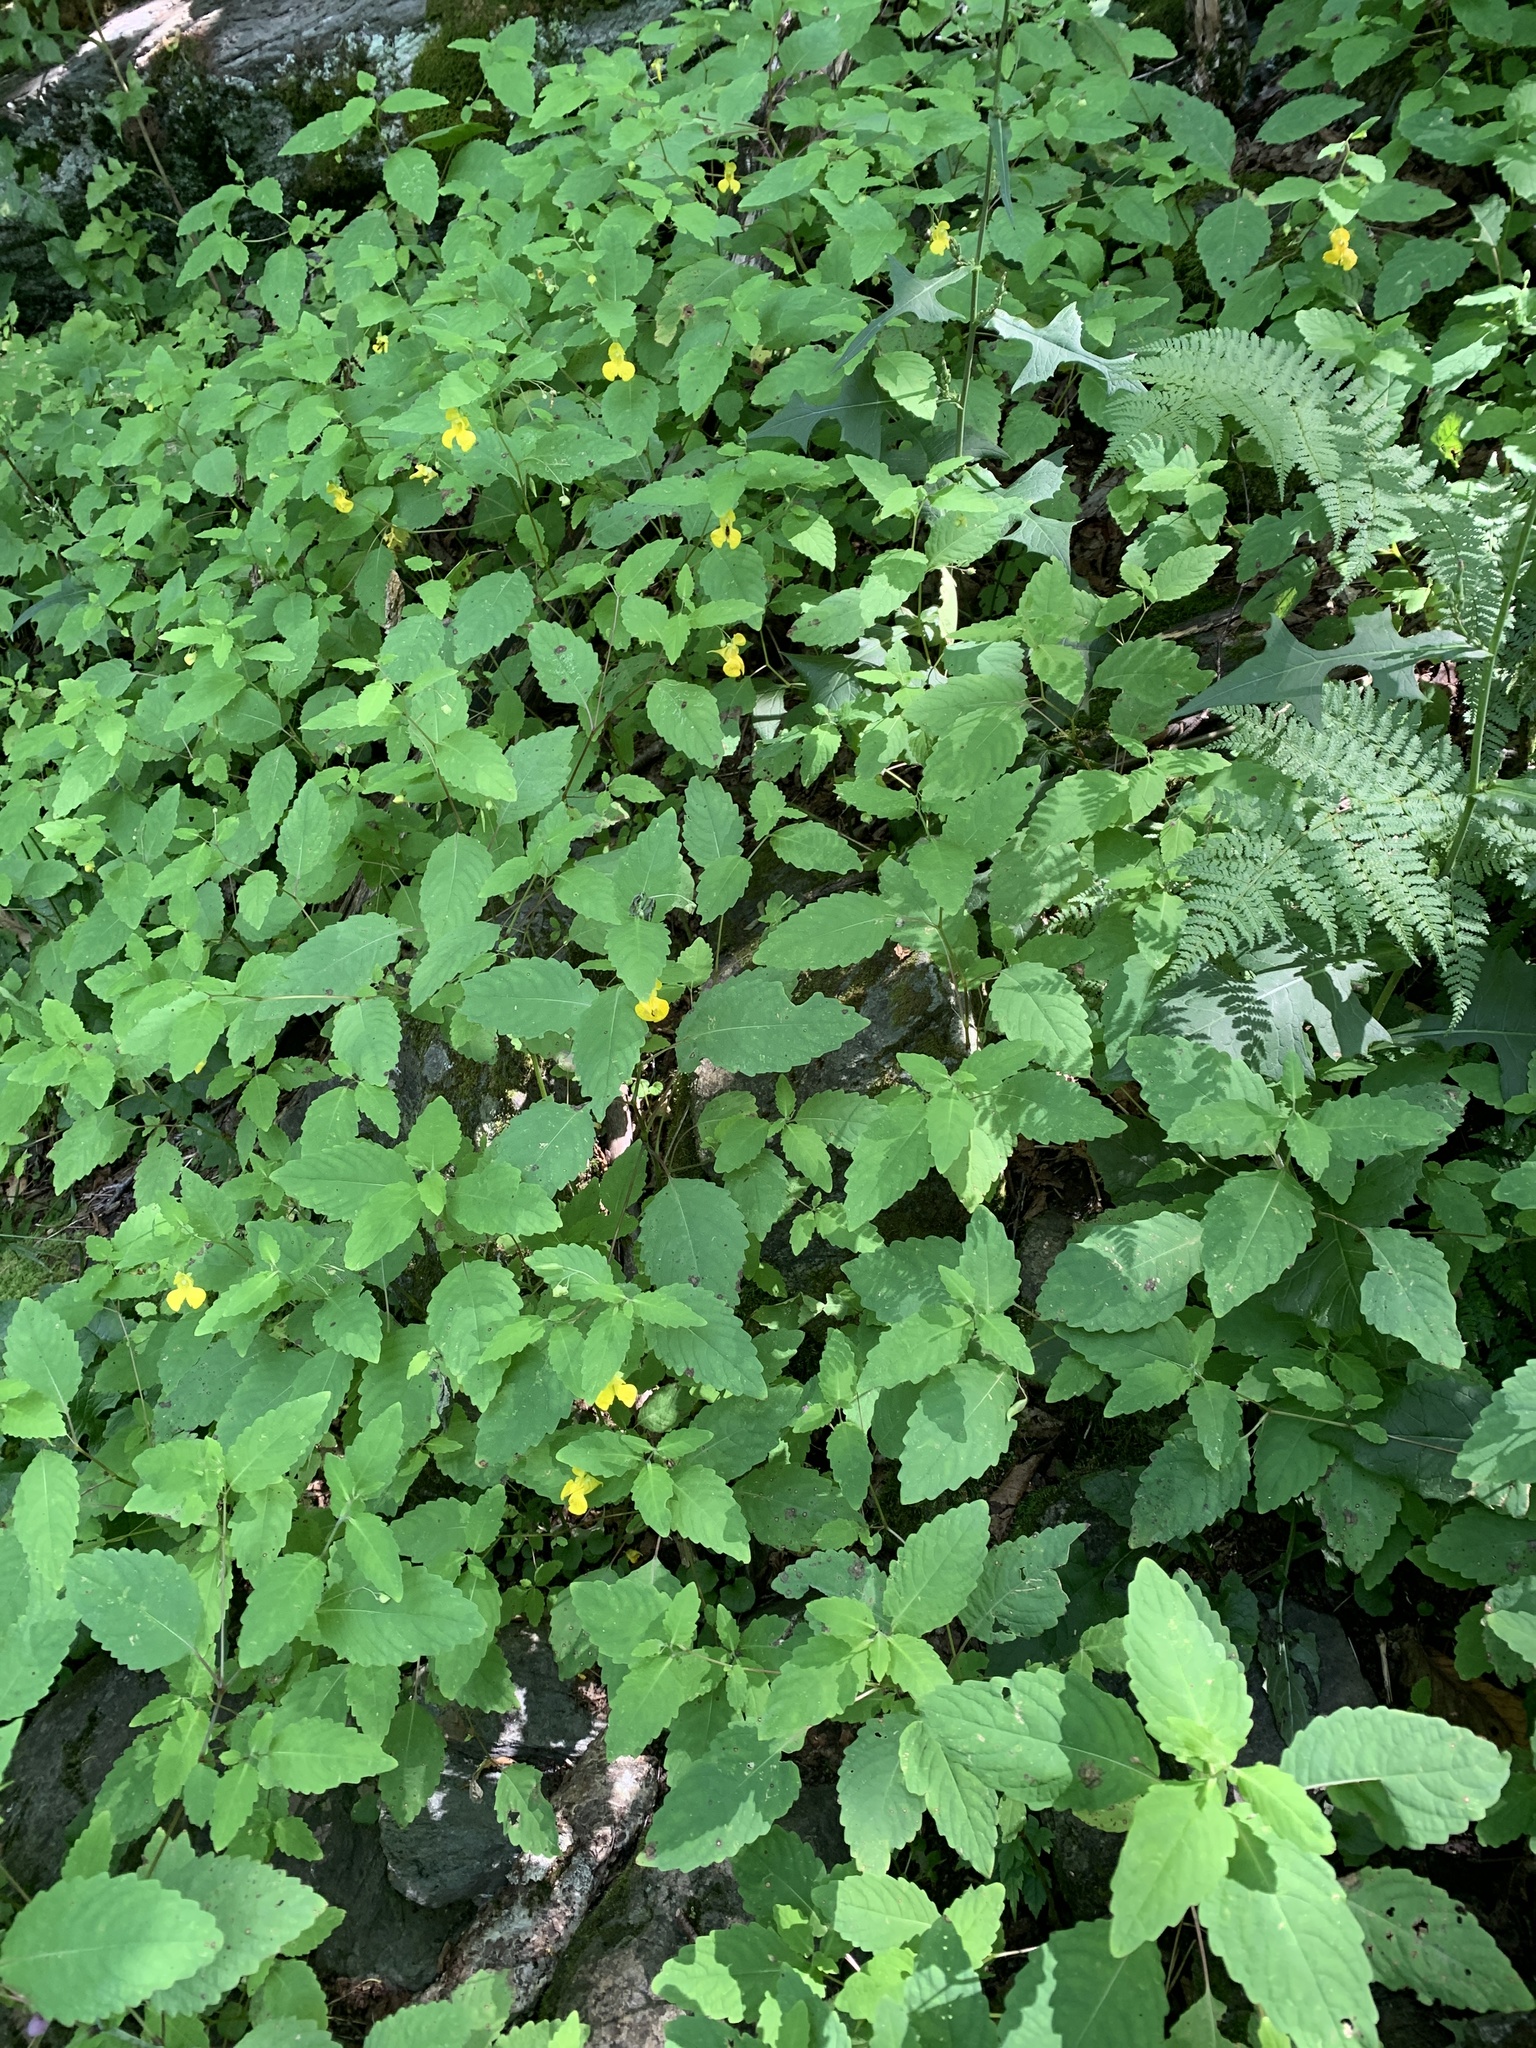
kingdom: Plantae
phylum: Tracheophyta
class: Magnoliopsida
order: Ericales
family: Balsaminaceae
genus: Impatiens
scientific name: Impatiens pallida
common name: Pale snapweed
